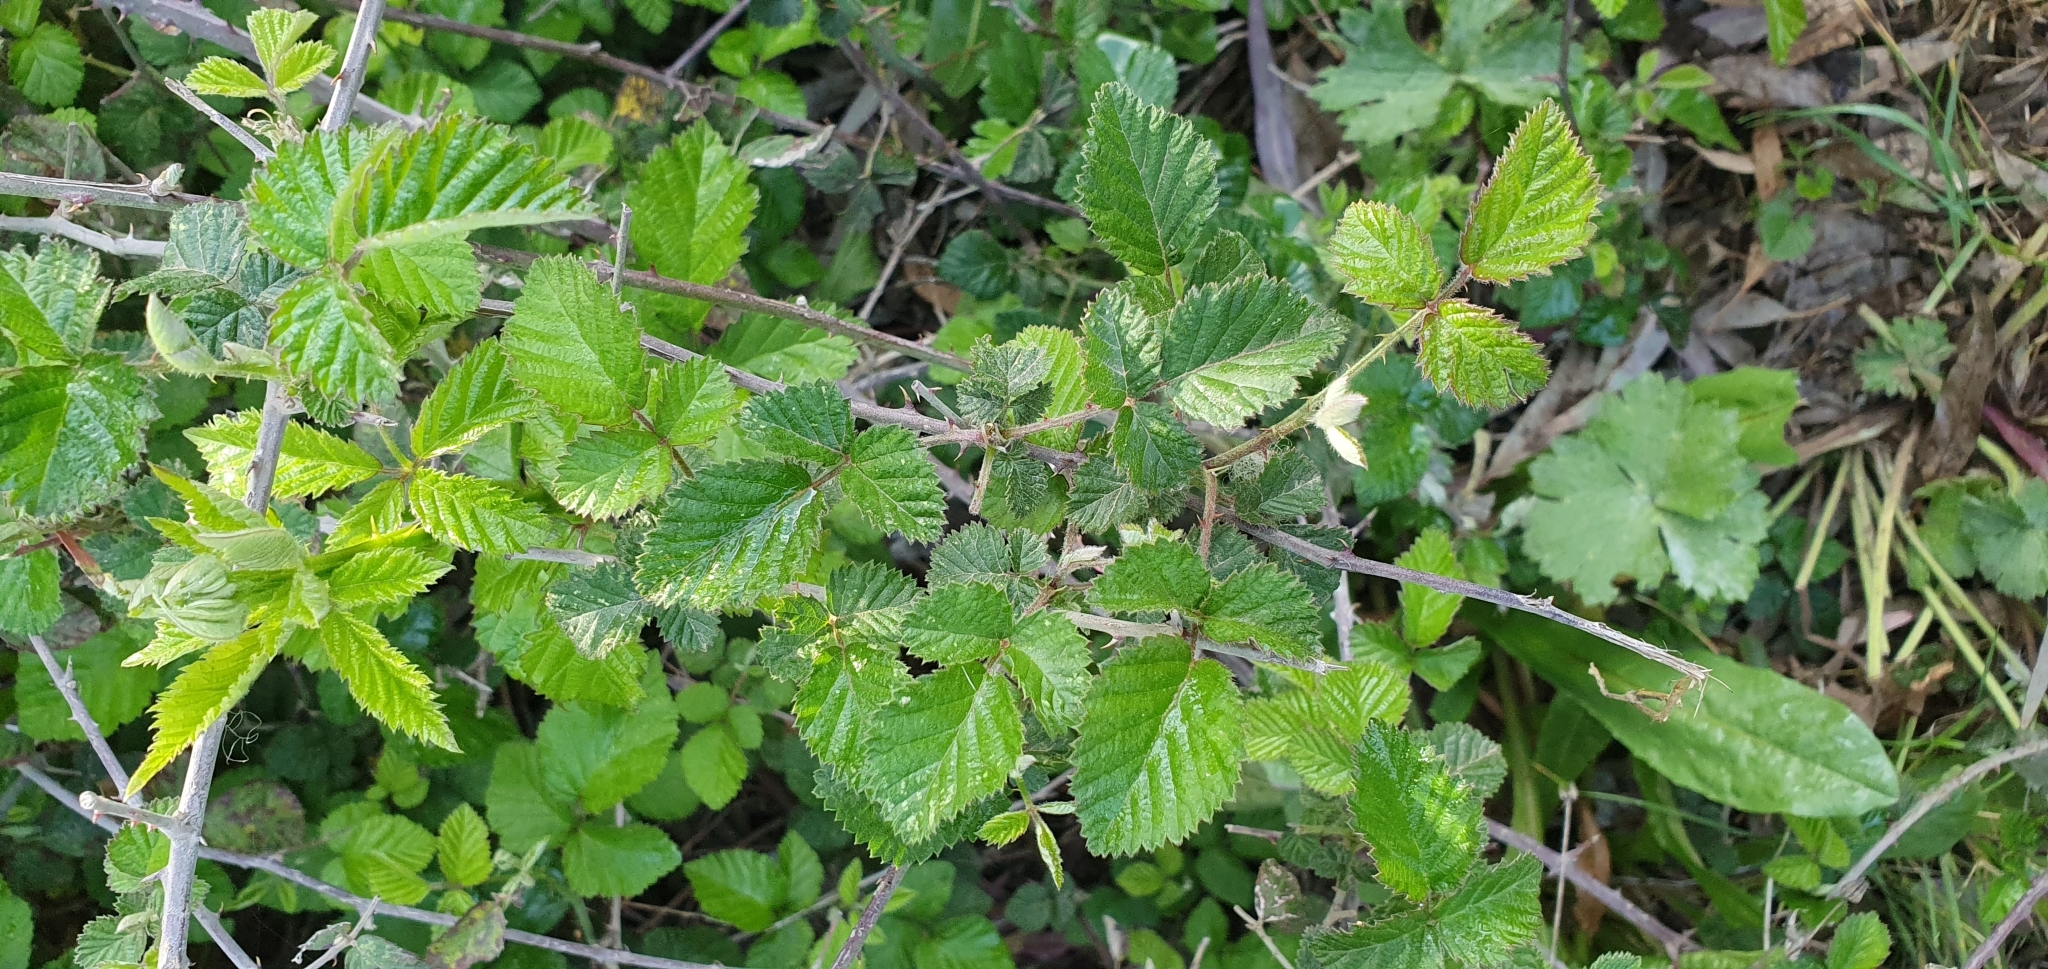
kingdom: Plantae
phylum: Tracheophyta
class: Magnoliopsida
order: Rosales
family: Rosaceae
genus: Rubus
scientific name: Rubus ulmifolius
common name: Elmleaf blackberry
